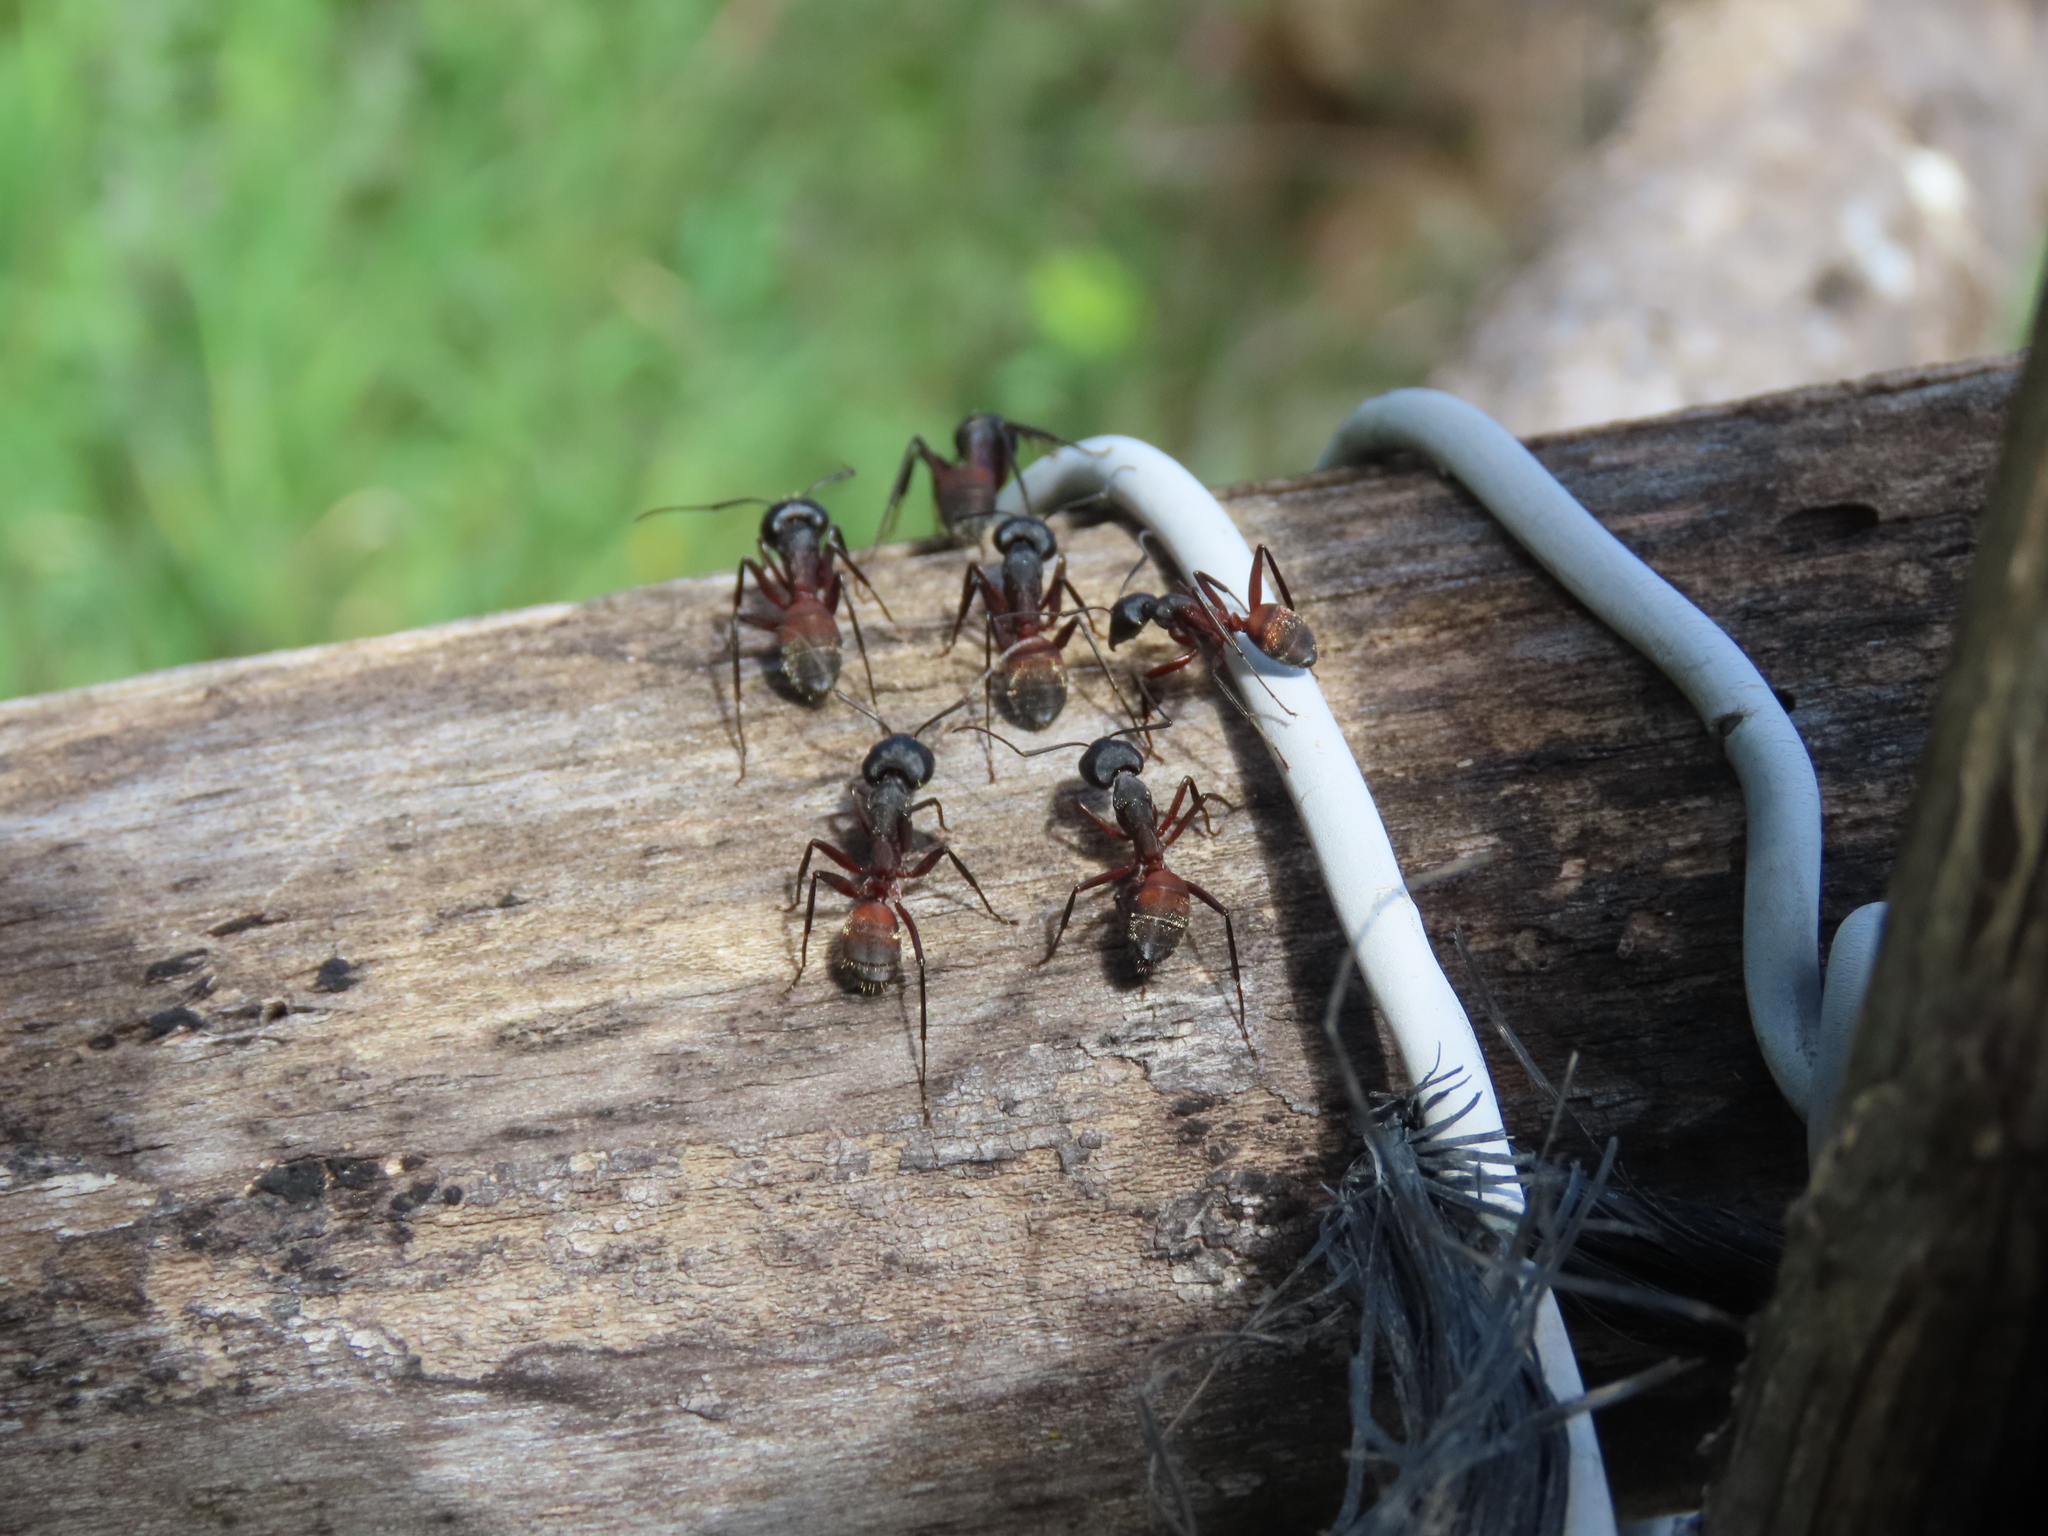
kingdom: Animalia
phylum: Arthropoda
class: Insecta
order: Hymenoptera
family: Formicidae
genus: Camponotus
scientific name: Camponotus cruentatus
